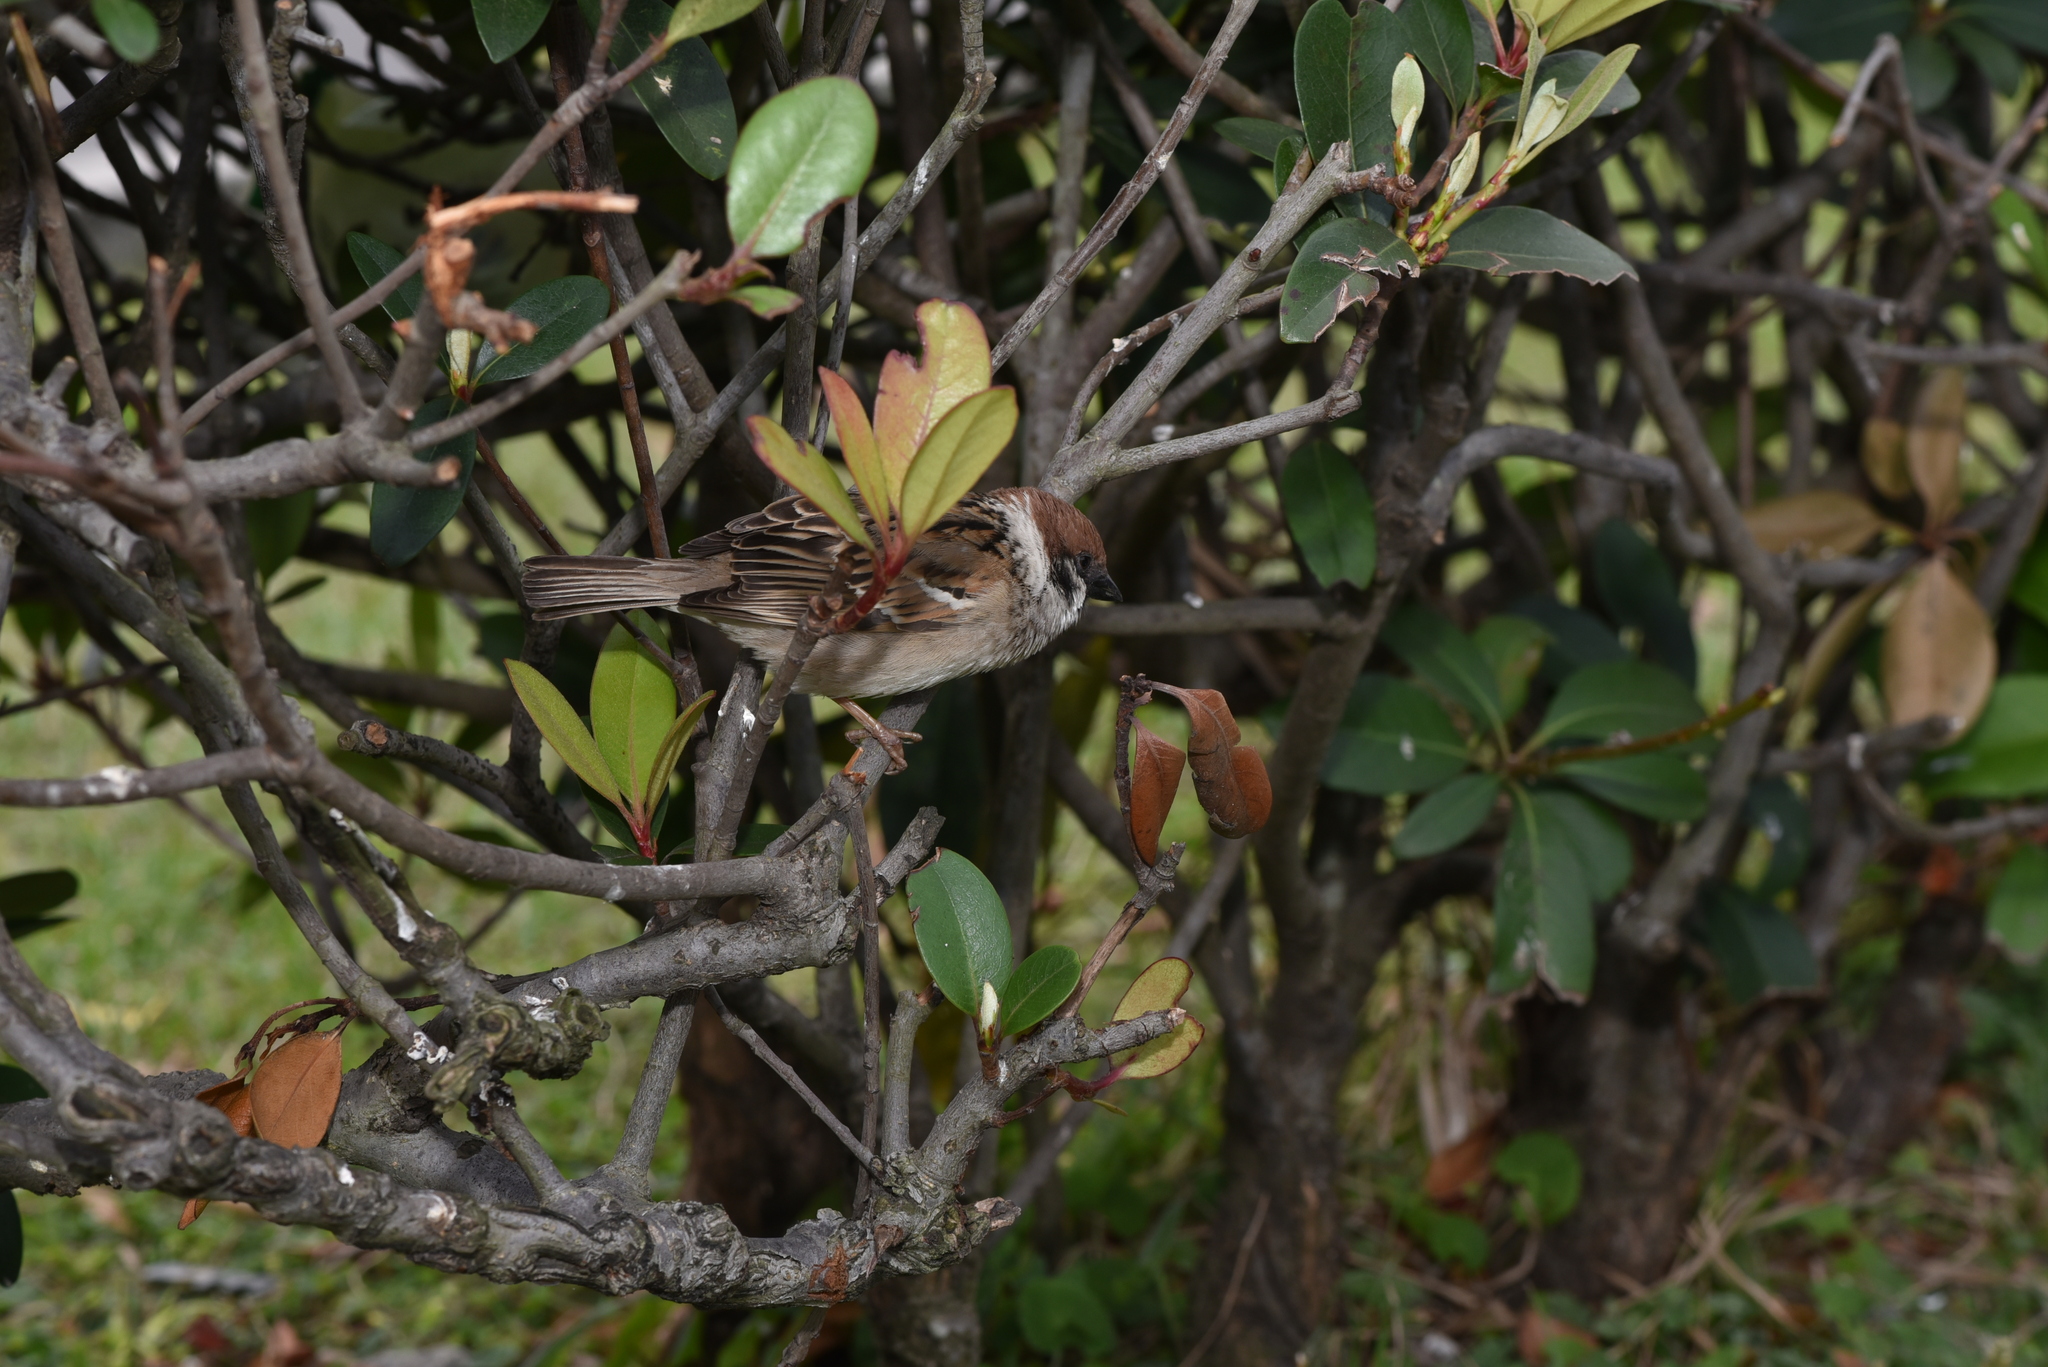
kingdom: Animalia
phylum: Chordata
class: Aves
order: Passeriformes
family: Passeridae
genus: Passer
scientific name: Passer montanus
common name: Eurasian tree sparrow
